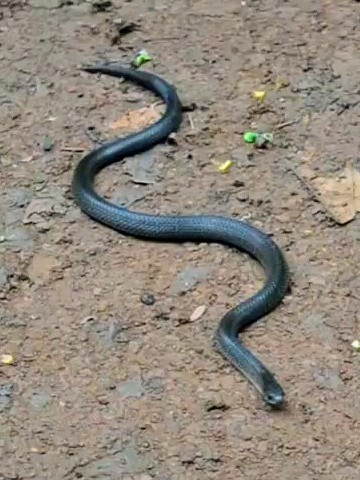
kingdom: Animalia
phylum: Chordata
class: Squamata
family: Colubridae
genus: Oligodon
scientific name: Oligodon kampucheaensis
